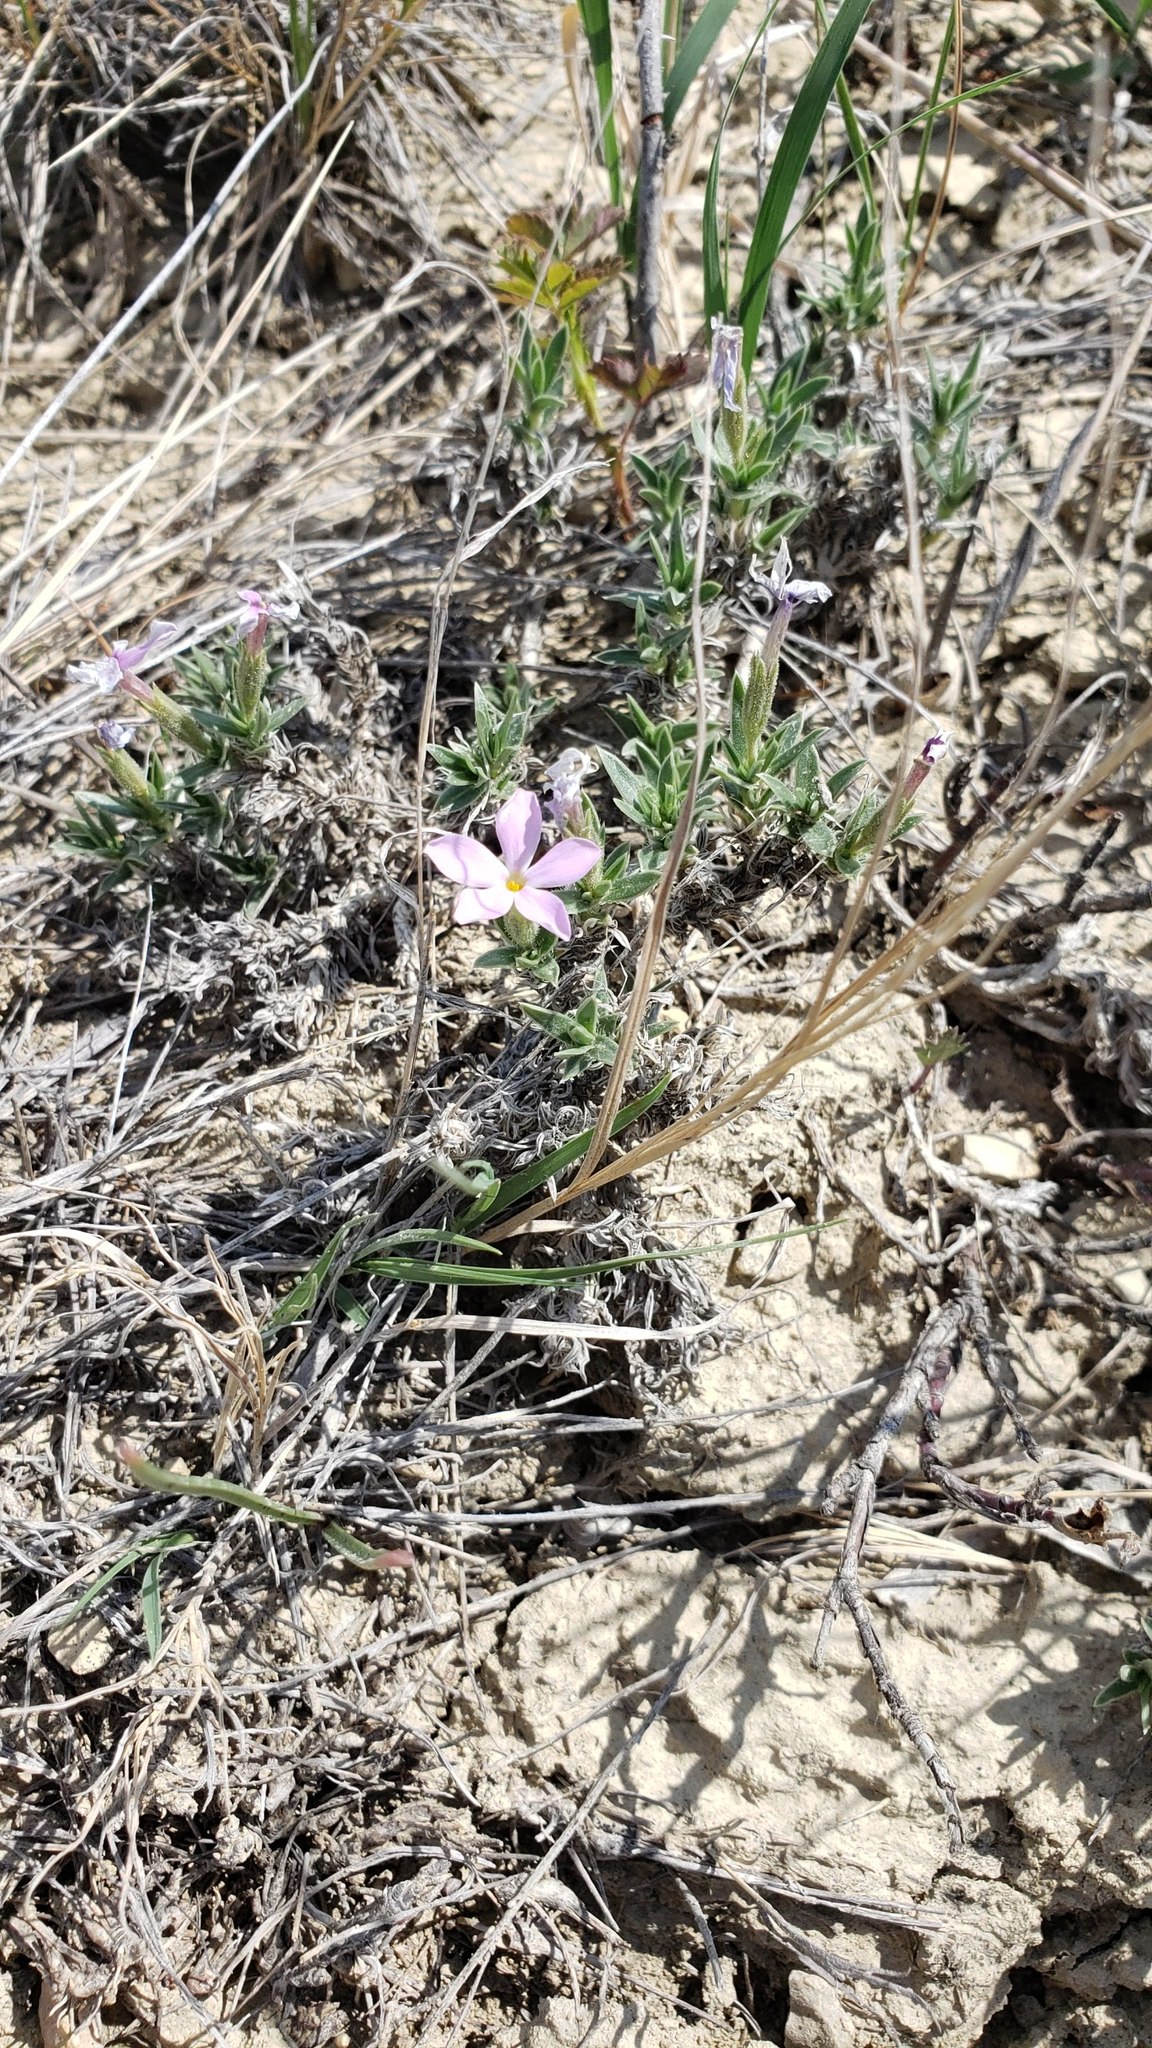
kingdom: Plantae
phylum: Tracheophyta
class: Magnoliopsida
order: Ericales
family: Polemoniaceae
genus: Phlox
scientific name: Phlox alyssifolia
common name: Blue phlox
